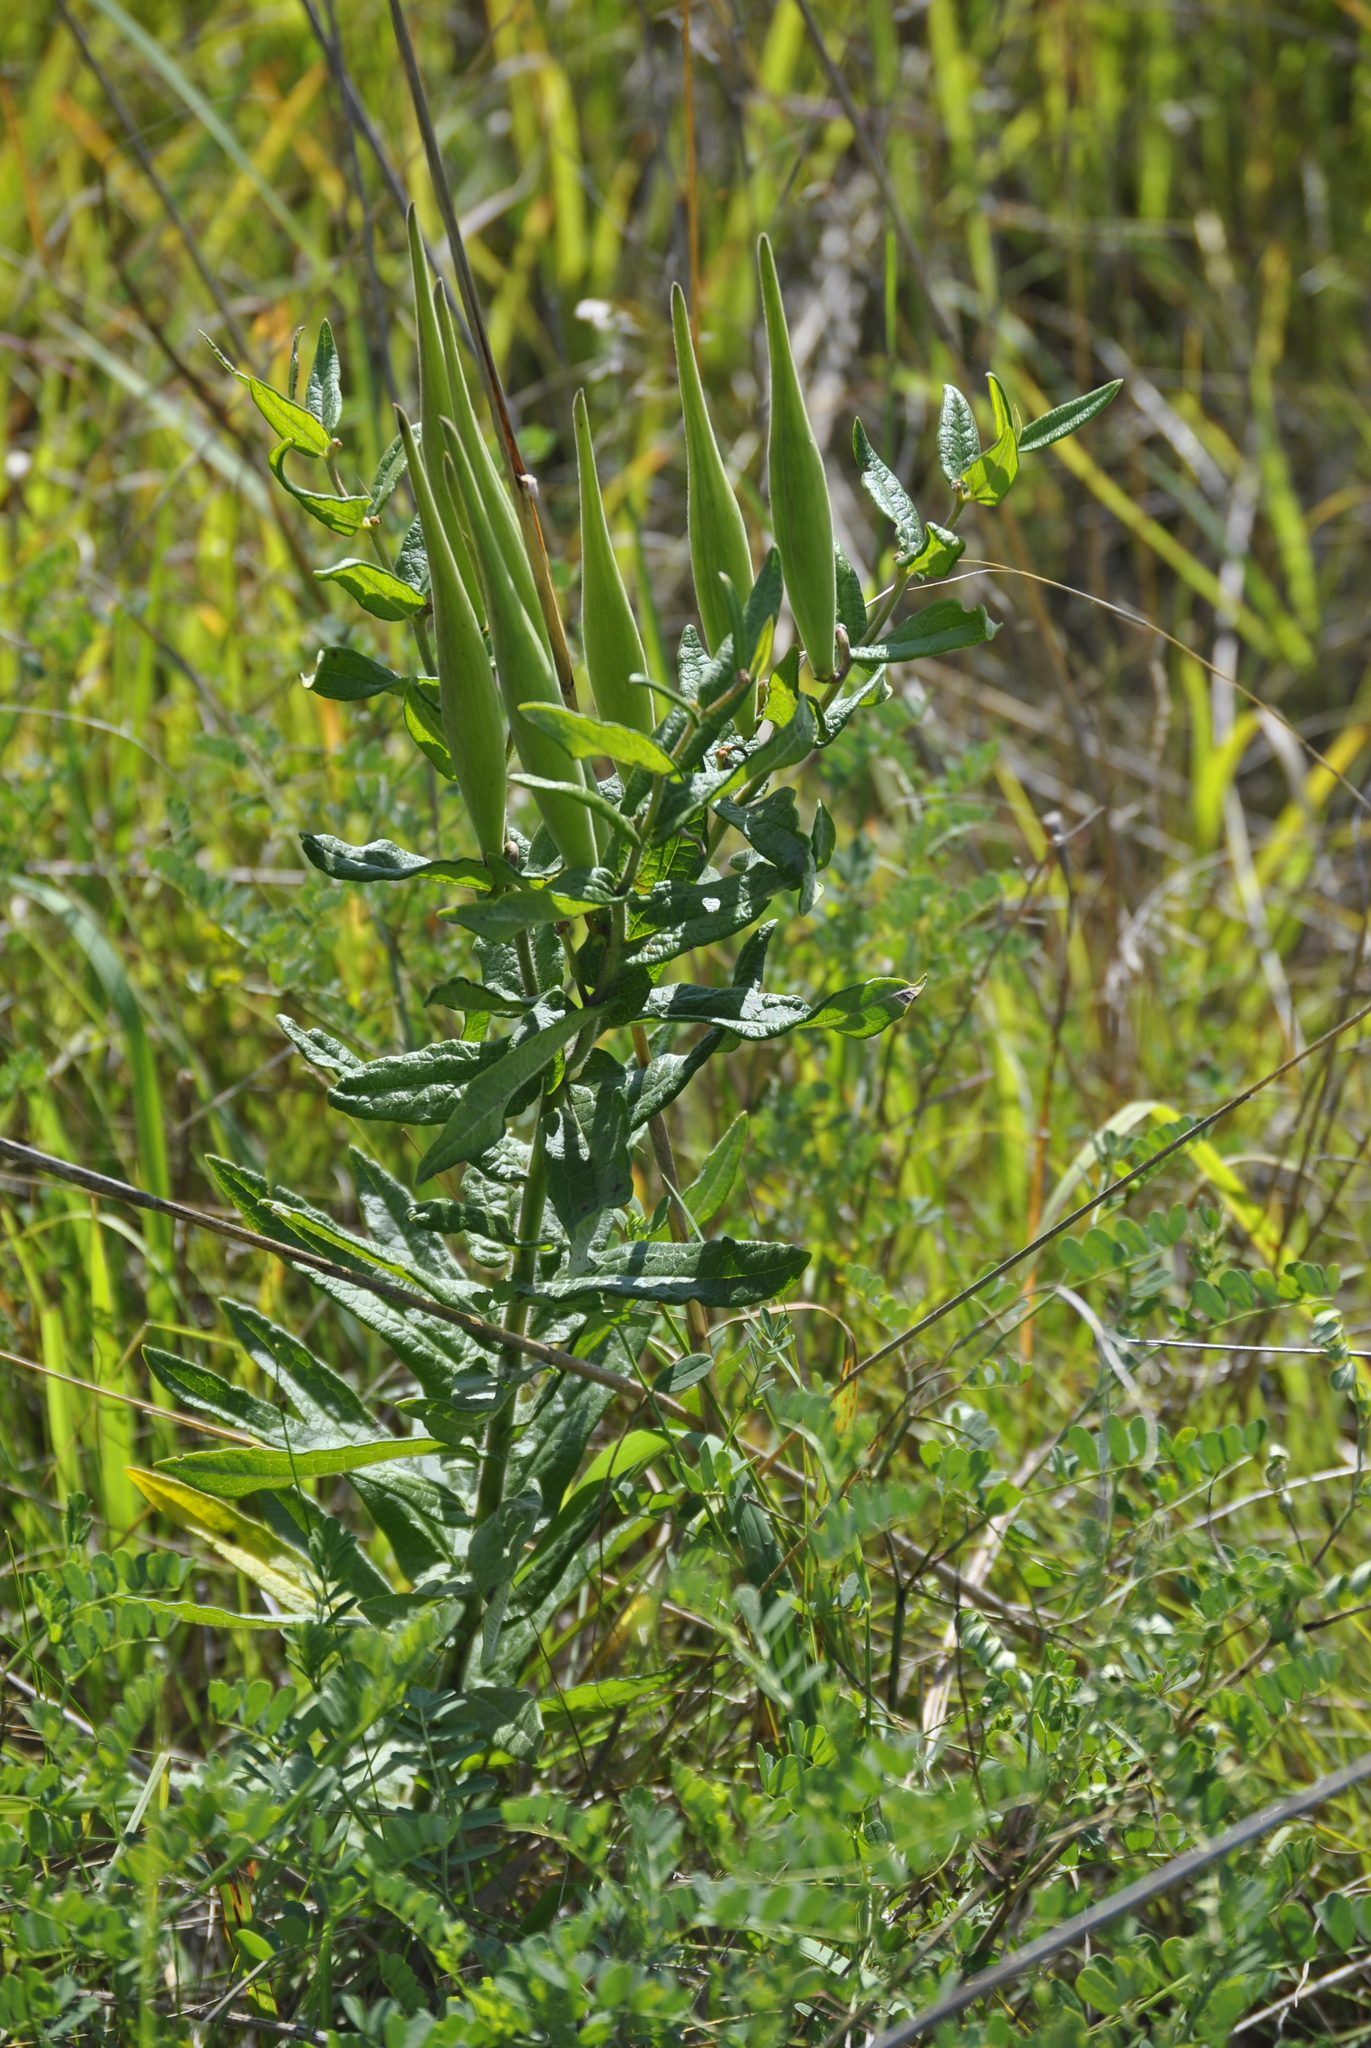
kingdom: Plantae
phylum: Tracheophyta
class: Magnoliopsida
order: Gentianales
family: Apocynaceae
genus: Asclepias
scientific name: Asclepias tuberosa
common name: Butterfly milkweed
